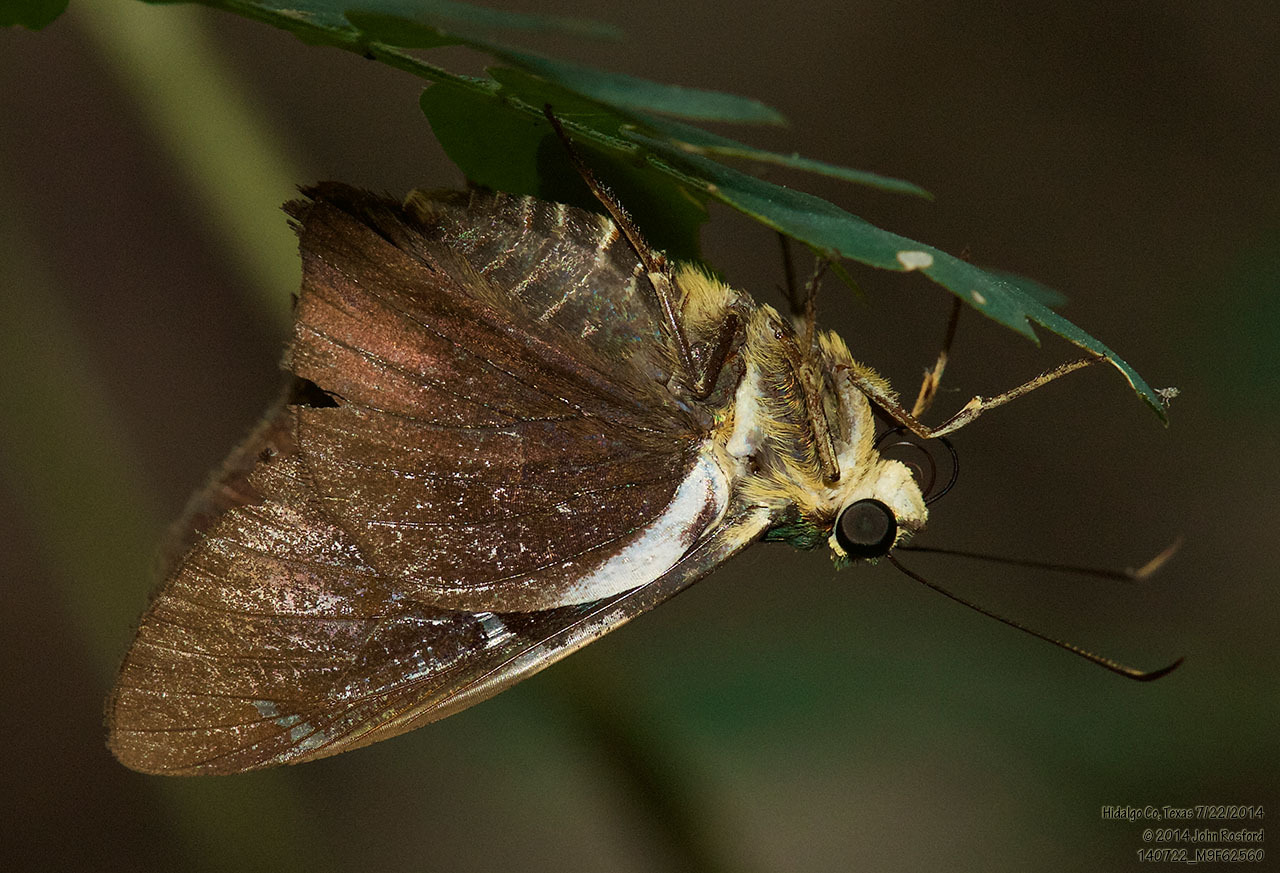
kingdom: Animalia
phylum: Arthropoda
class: Insecta
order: Lepidoptera
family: Hesperiidae
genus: Astraptes
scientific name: Astraptes fulgerator
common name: Two-barred flasher
